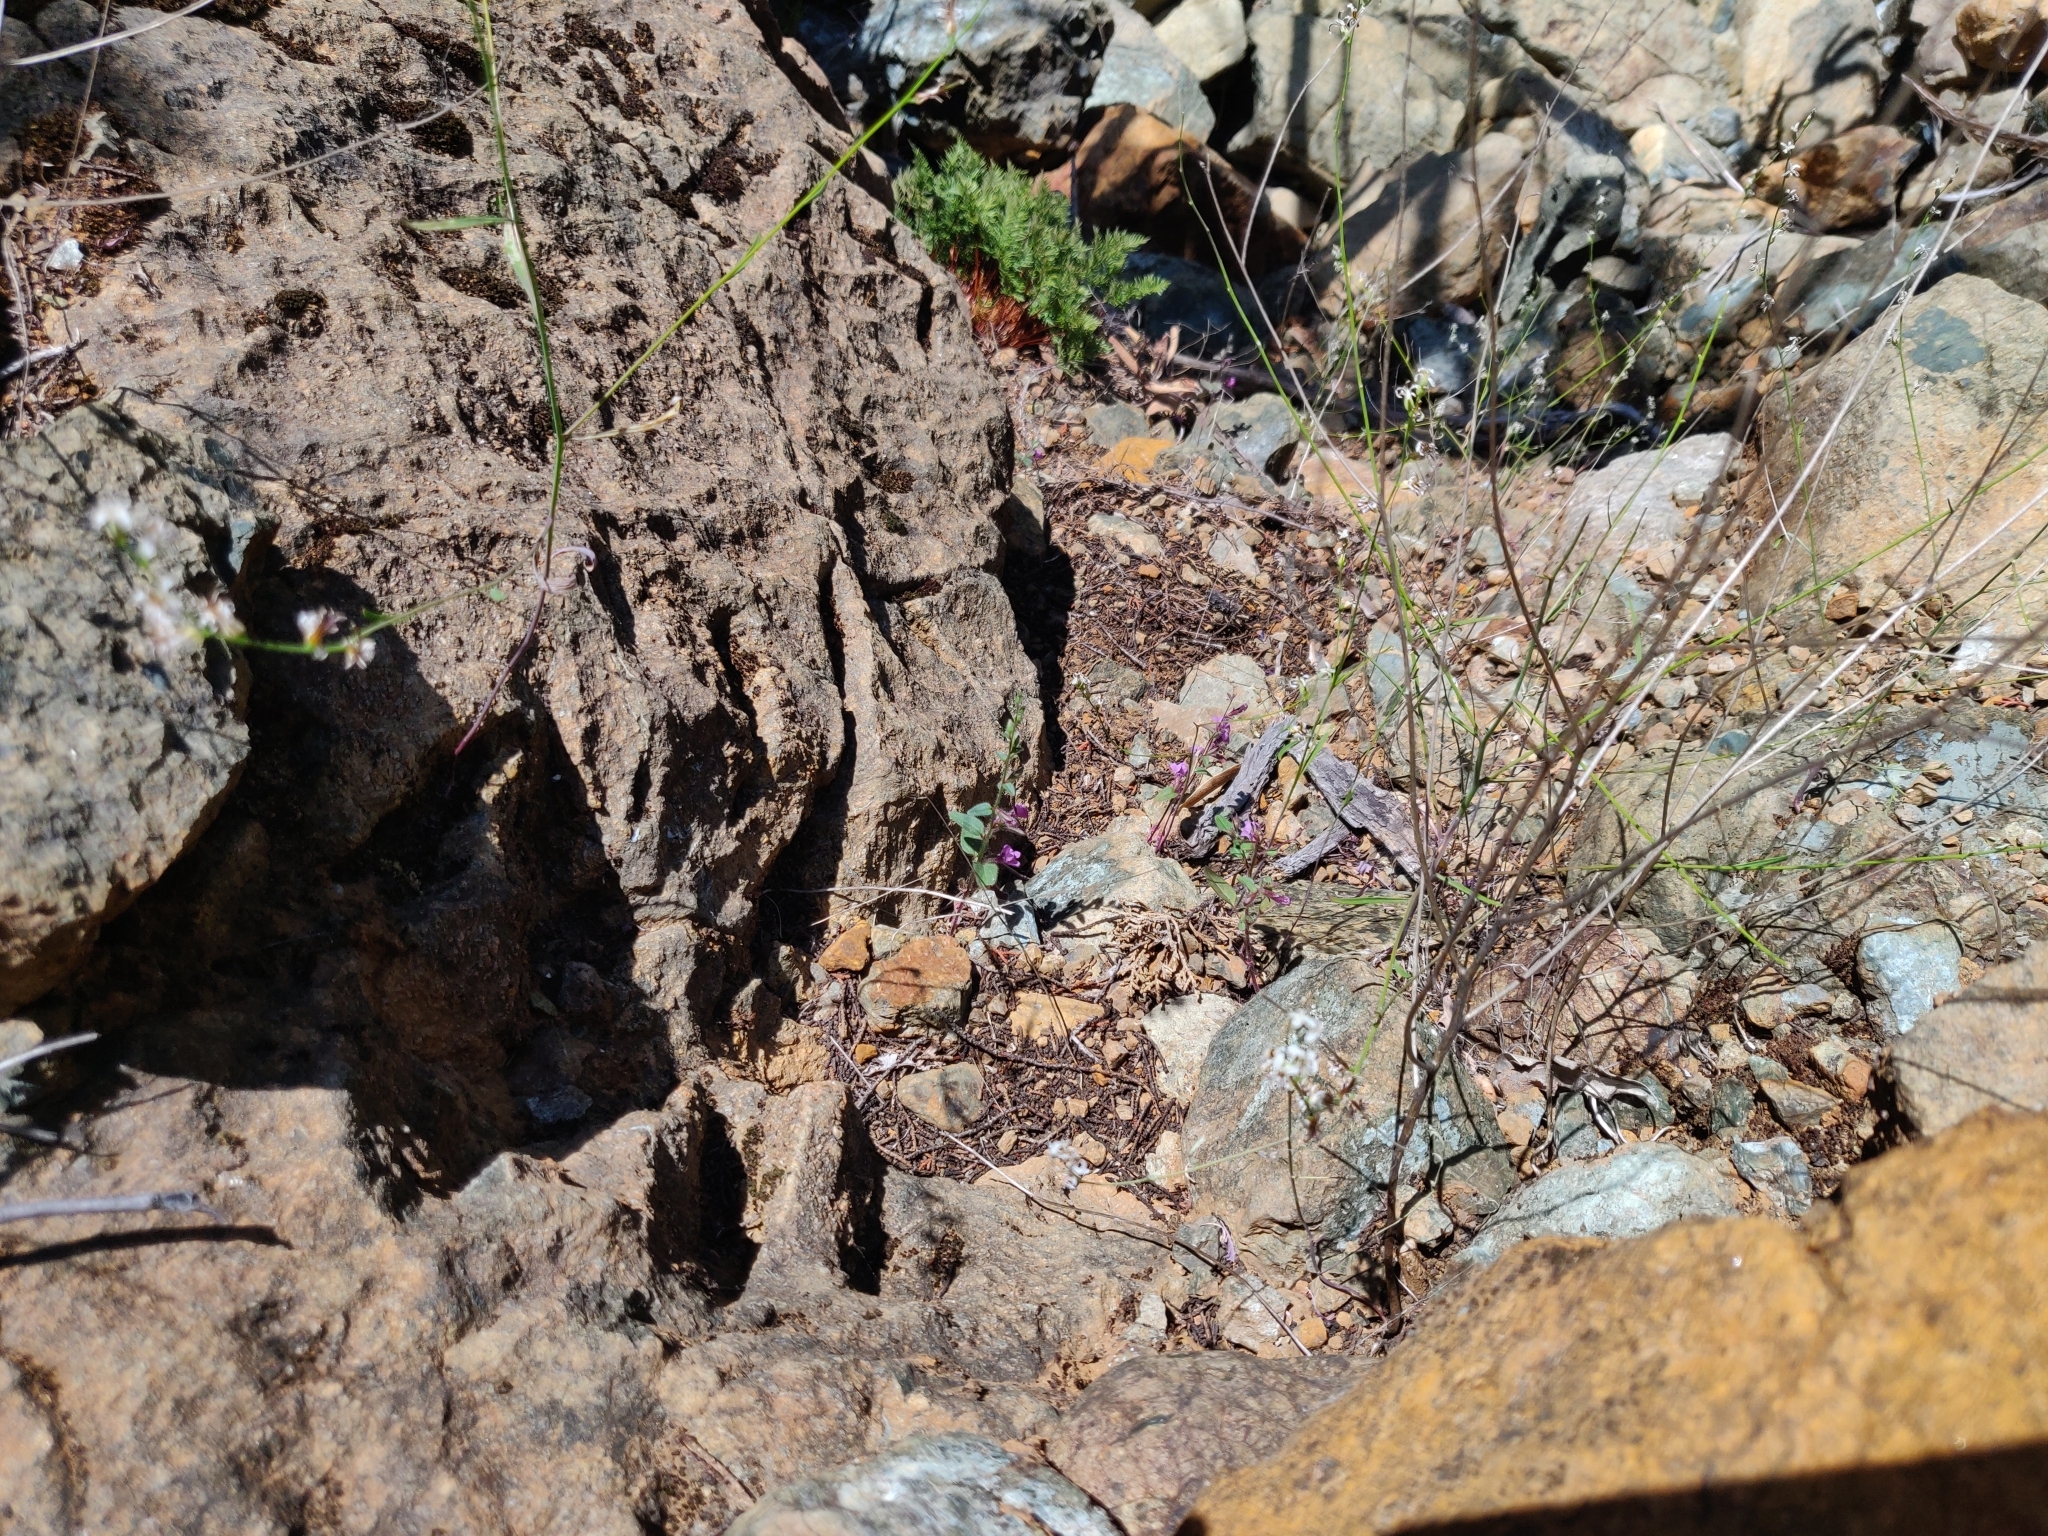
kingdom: Plantae
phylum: Tracheophyta
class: Magnoliopsida
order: Lamiales
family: Plantaginaceae
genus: Sairocarpus
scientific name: Sairocarpus vexillocalyculatus
